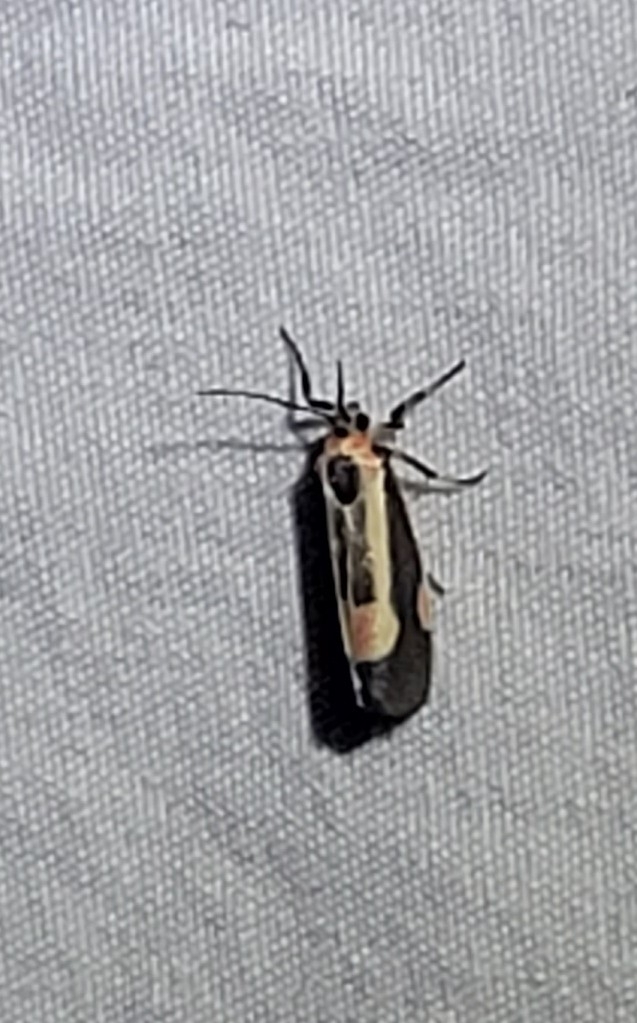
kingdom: Animalia
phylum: Arthropoda
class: Insecta
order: Lepidoptera
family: Cosmopterigidae
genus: Euclemensia
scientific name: Euclemensia bassettella
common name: Kermes scale moth
